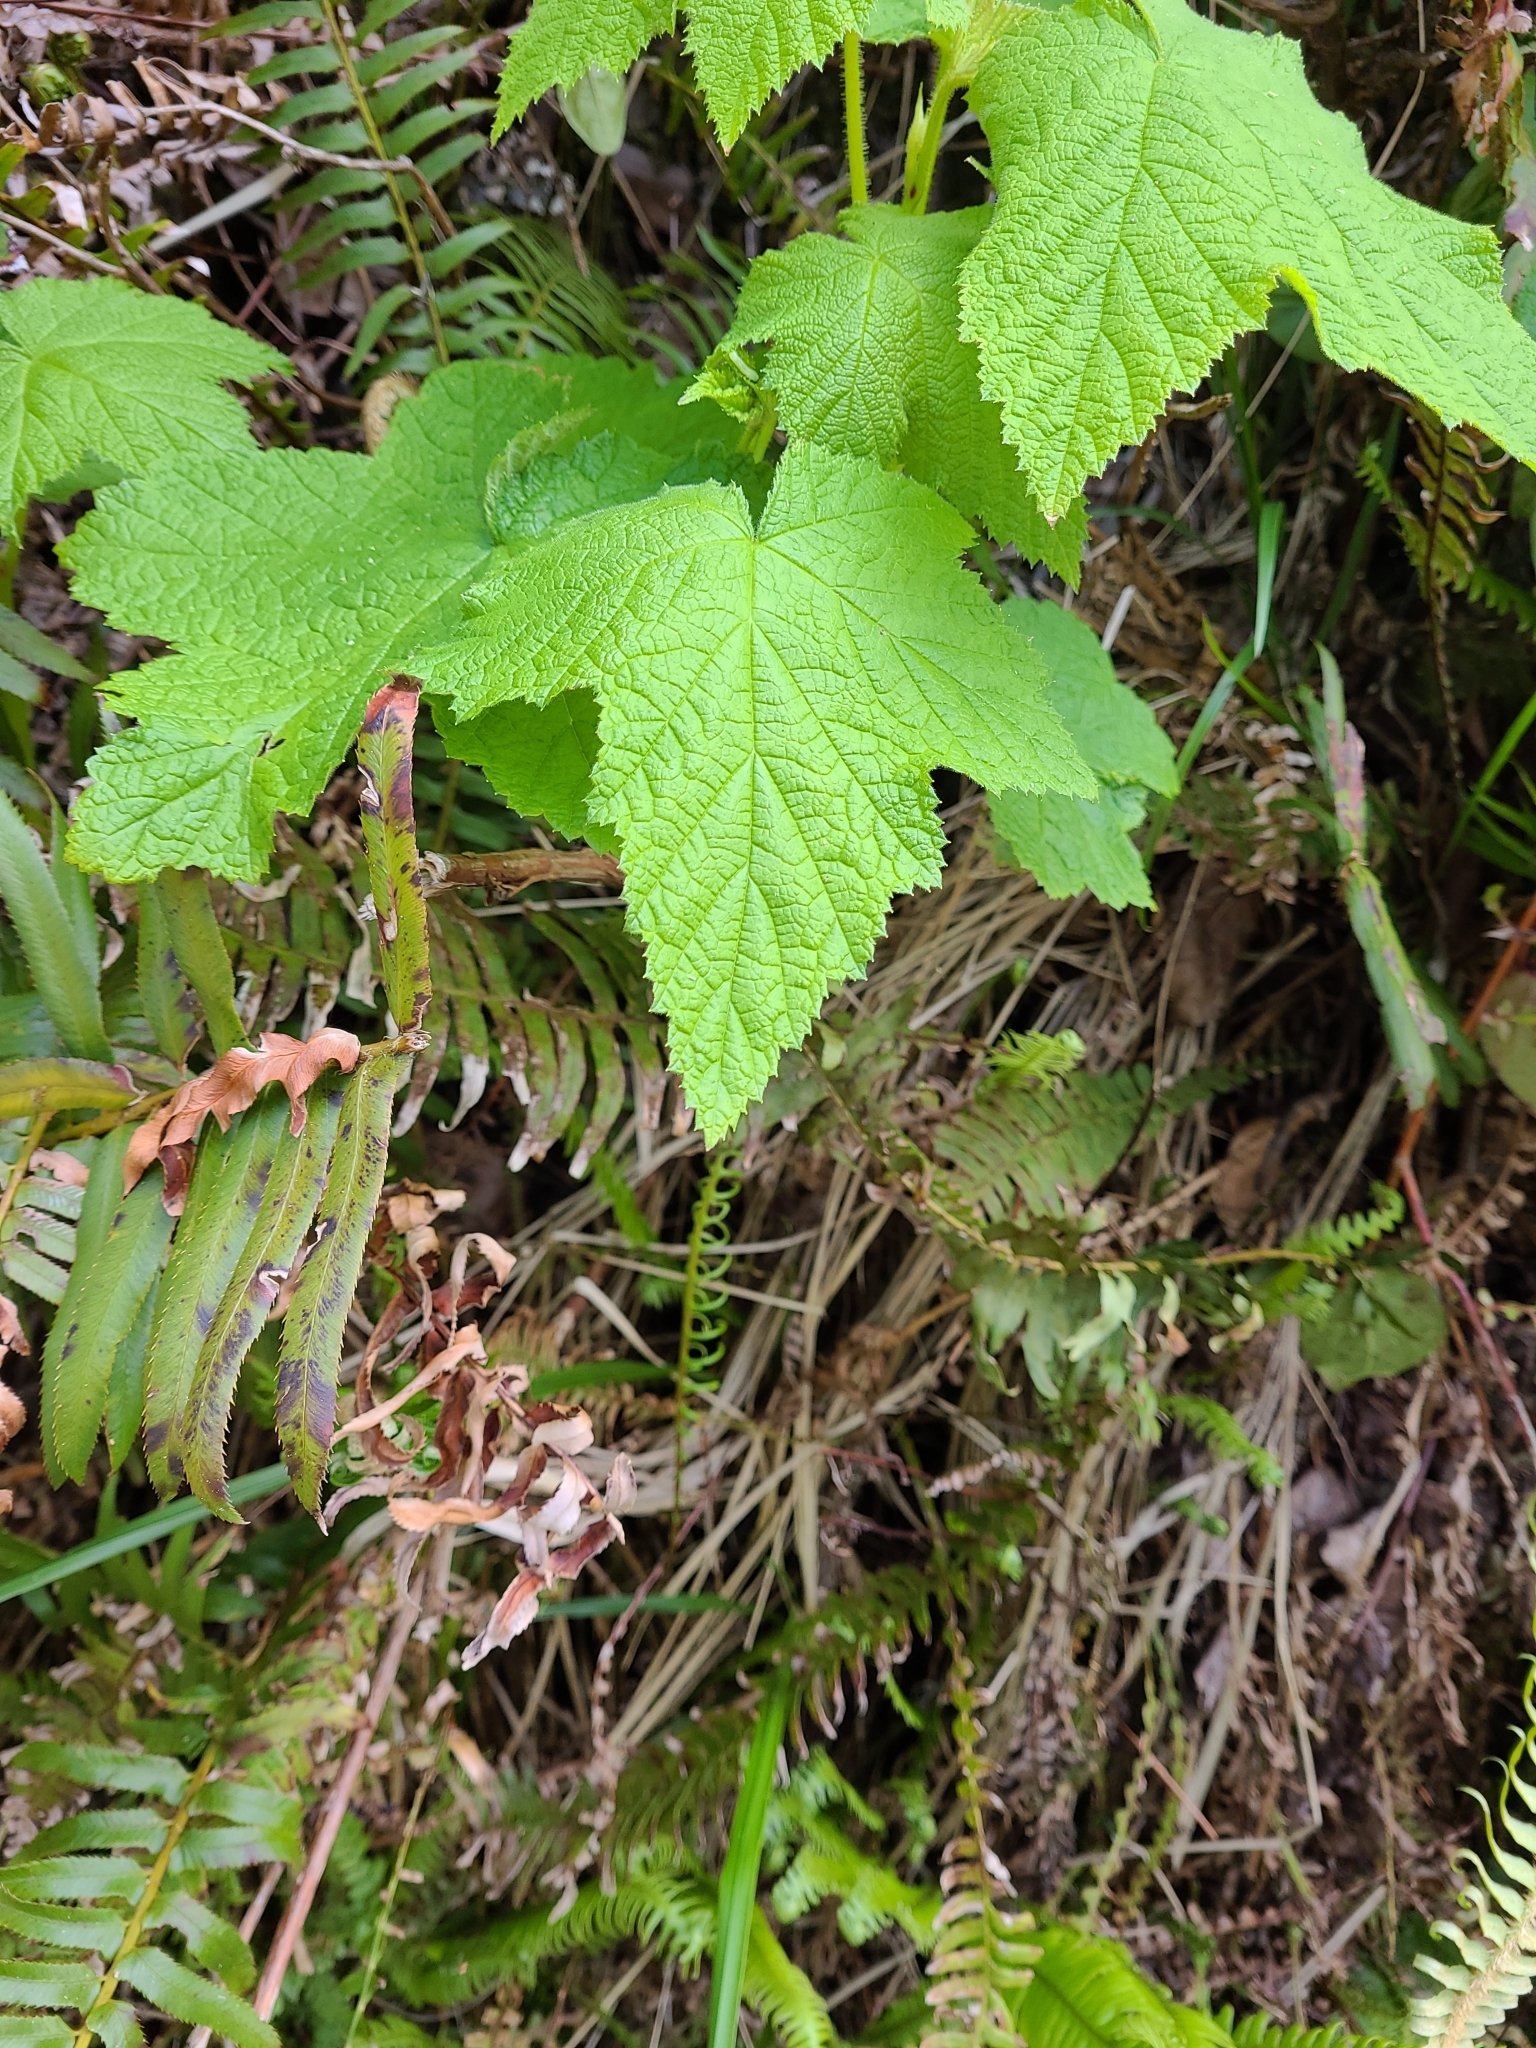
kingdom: Plantae
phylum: Tracheophyta
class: Magnoliopsida
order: Rosales
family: Rosaceae
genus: Rubus
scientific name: Rubus parviflorus
